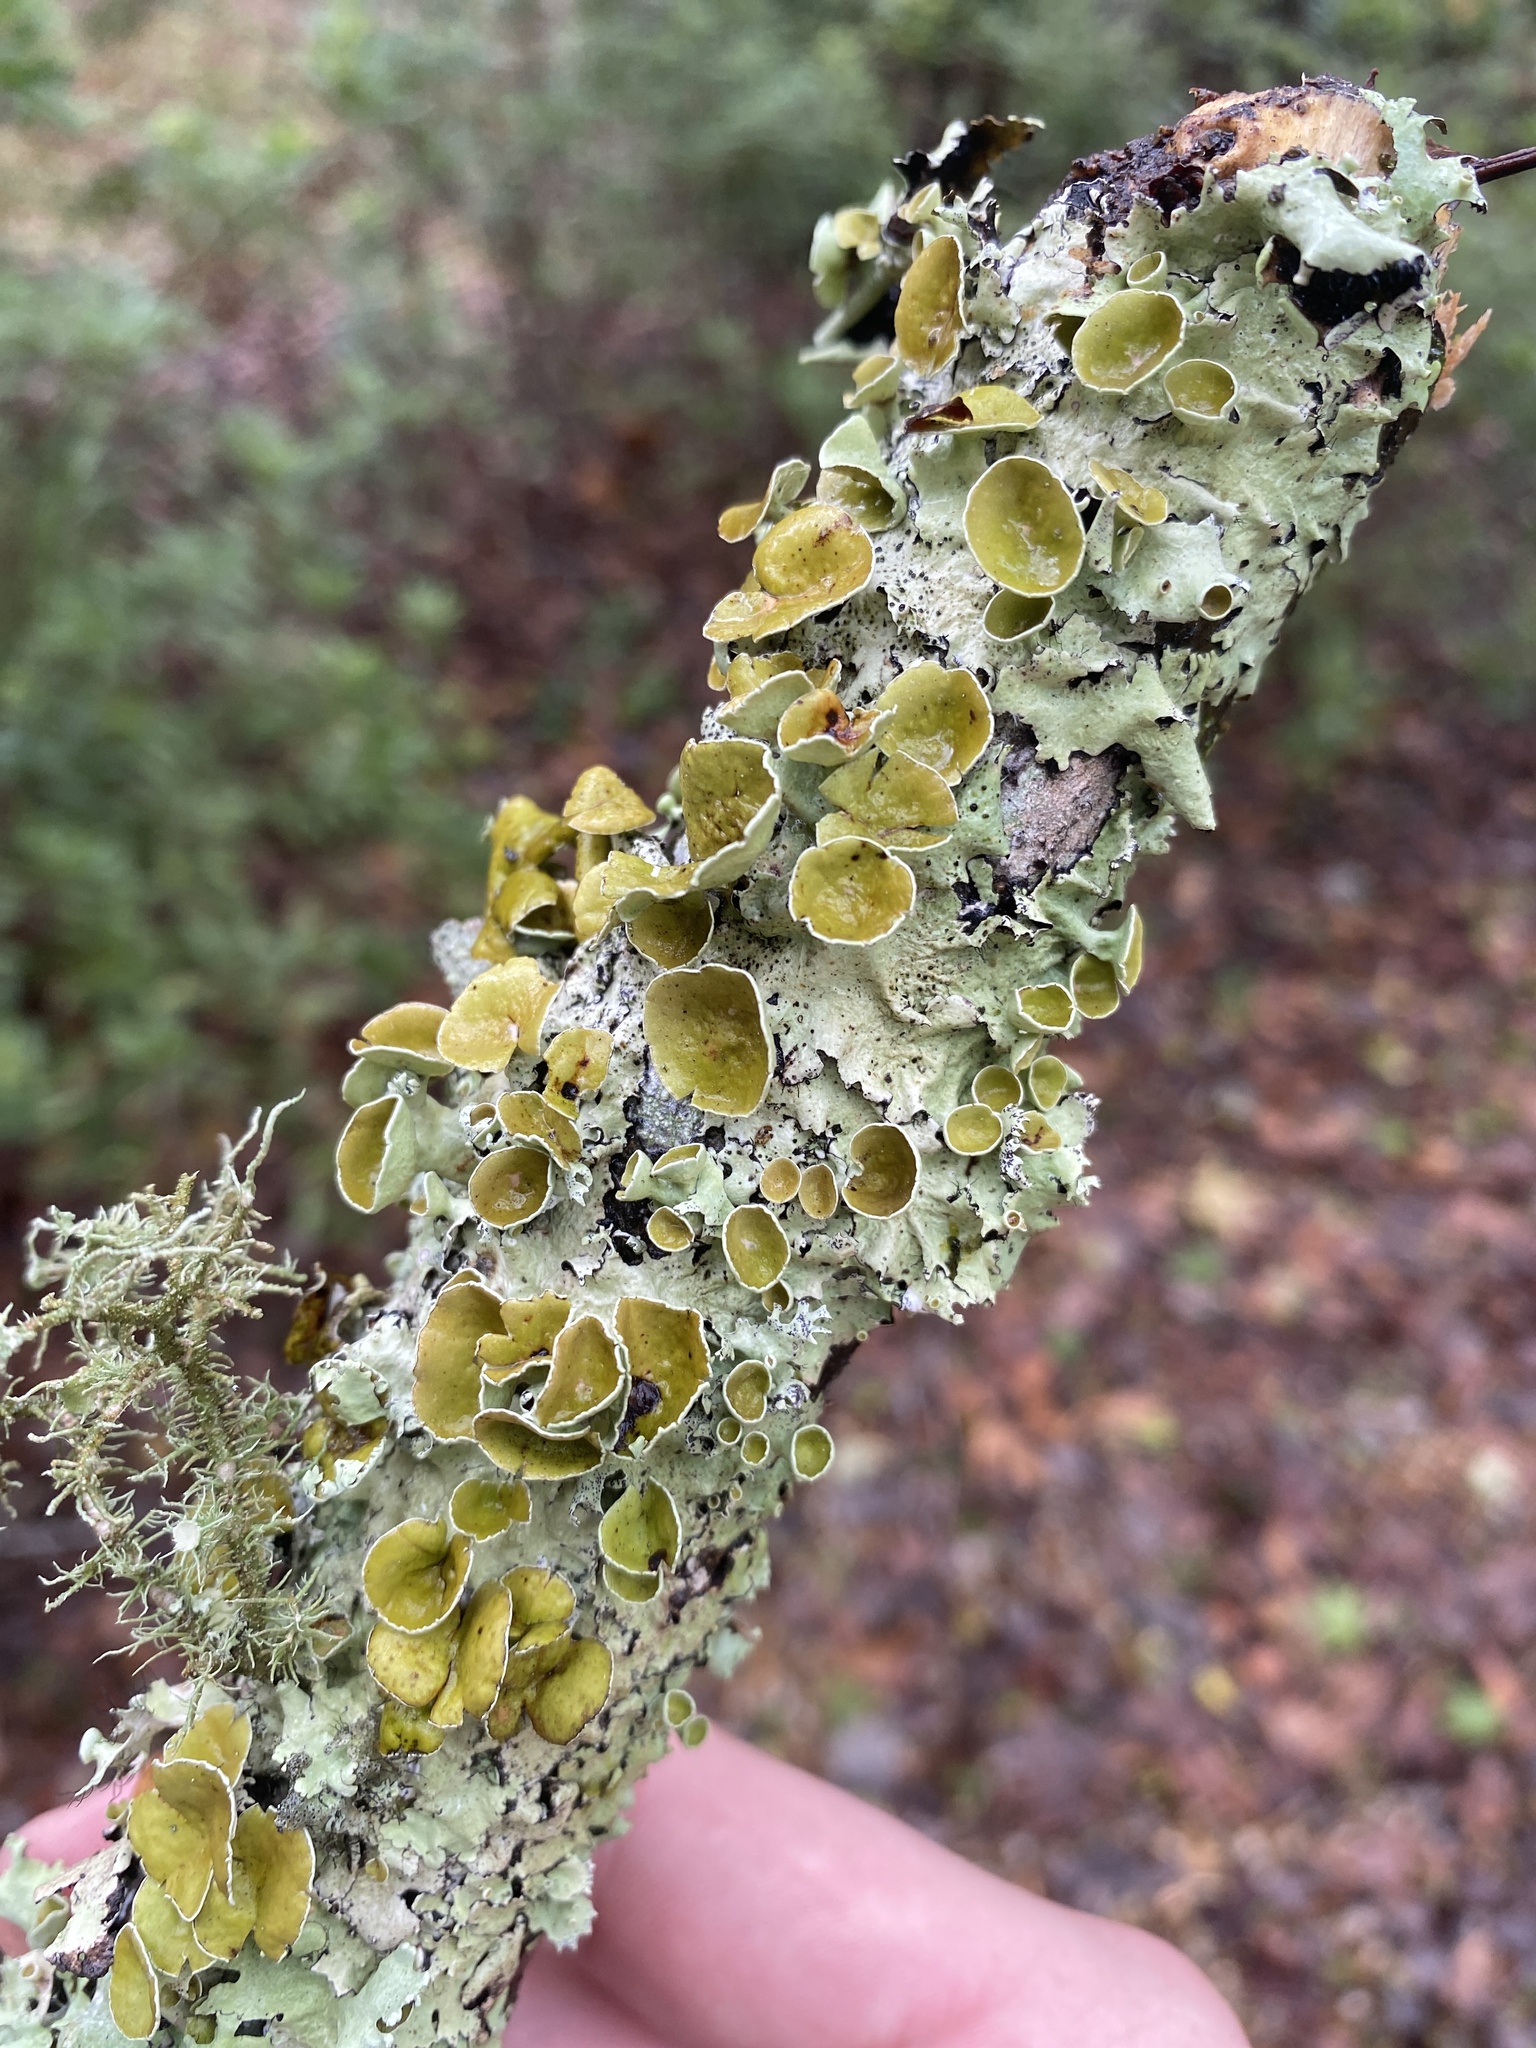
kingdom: Fungi
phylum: Ascomycota
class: Lecanoromycetes
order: Lecanorales
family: Parmeliaceae
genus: Parmotrema
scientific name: Parmotrema submarginale
